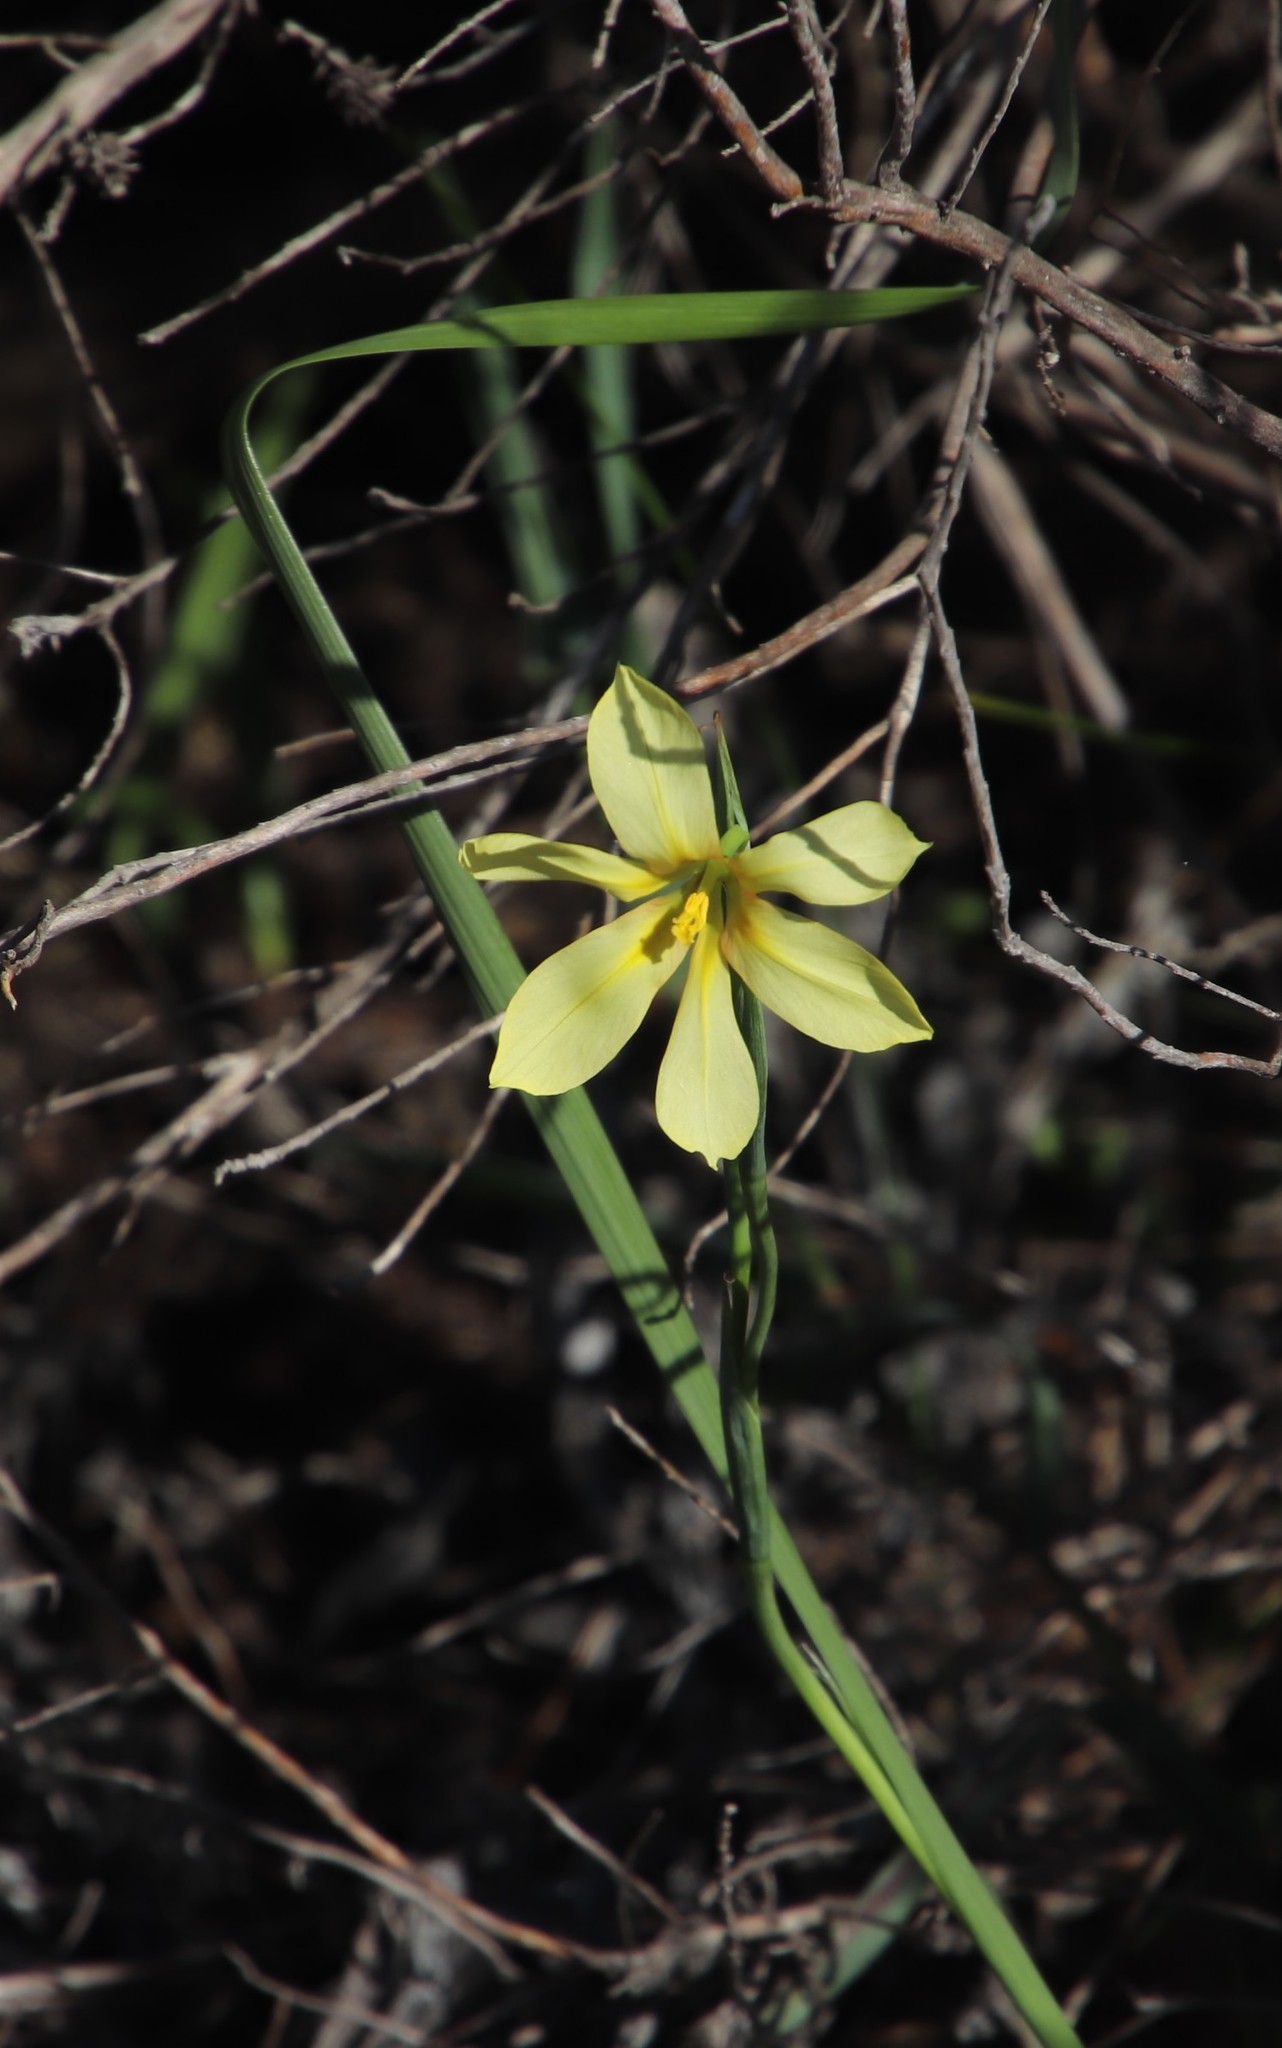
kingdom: Plantae
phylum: Tracheophyta
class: Liliopsida
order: Asparagales
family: Iridaceae
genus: Moraea
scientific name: Moraea collina
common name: Cape-tulip
